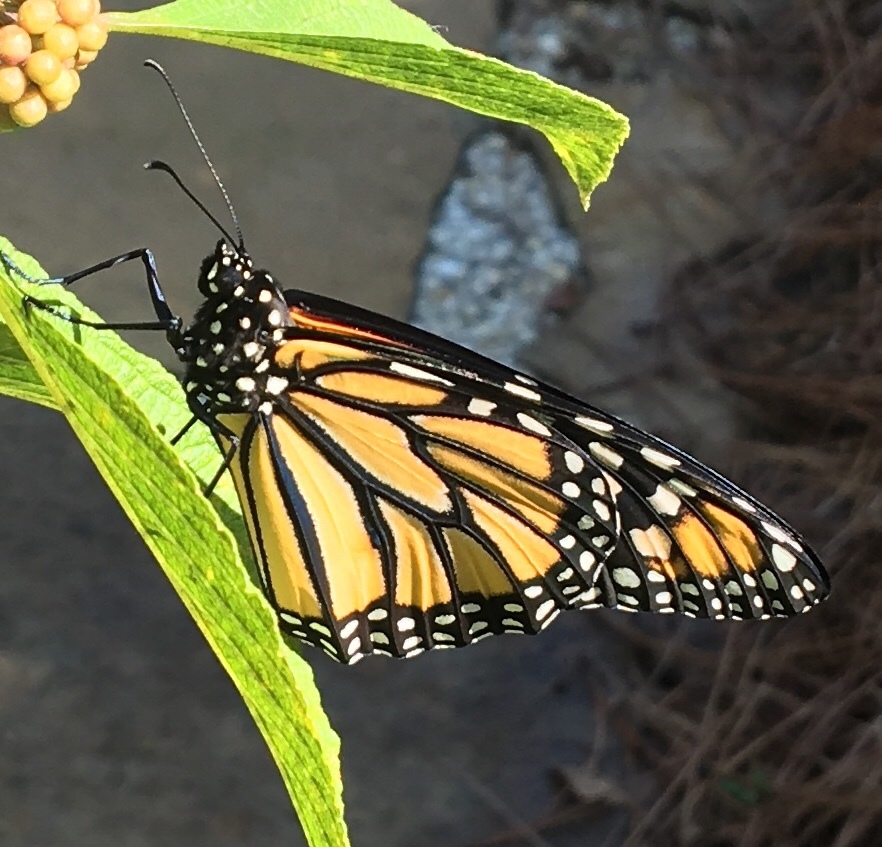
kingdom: Animalia
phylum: Arthropoda
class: Insecta
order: Lepidoptera
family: Nymphalidae
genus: Danaus
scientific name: Danaus plexippus
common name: Monarch
